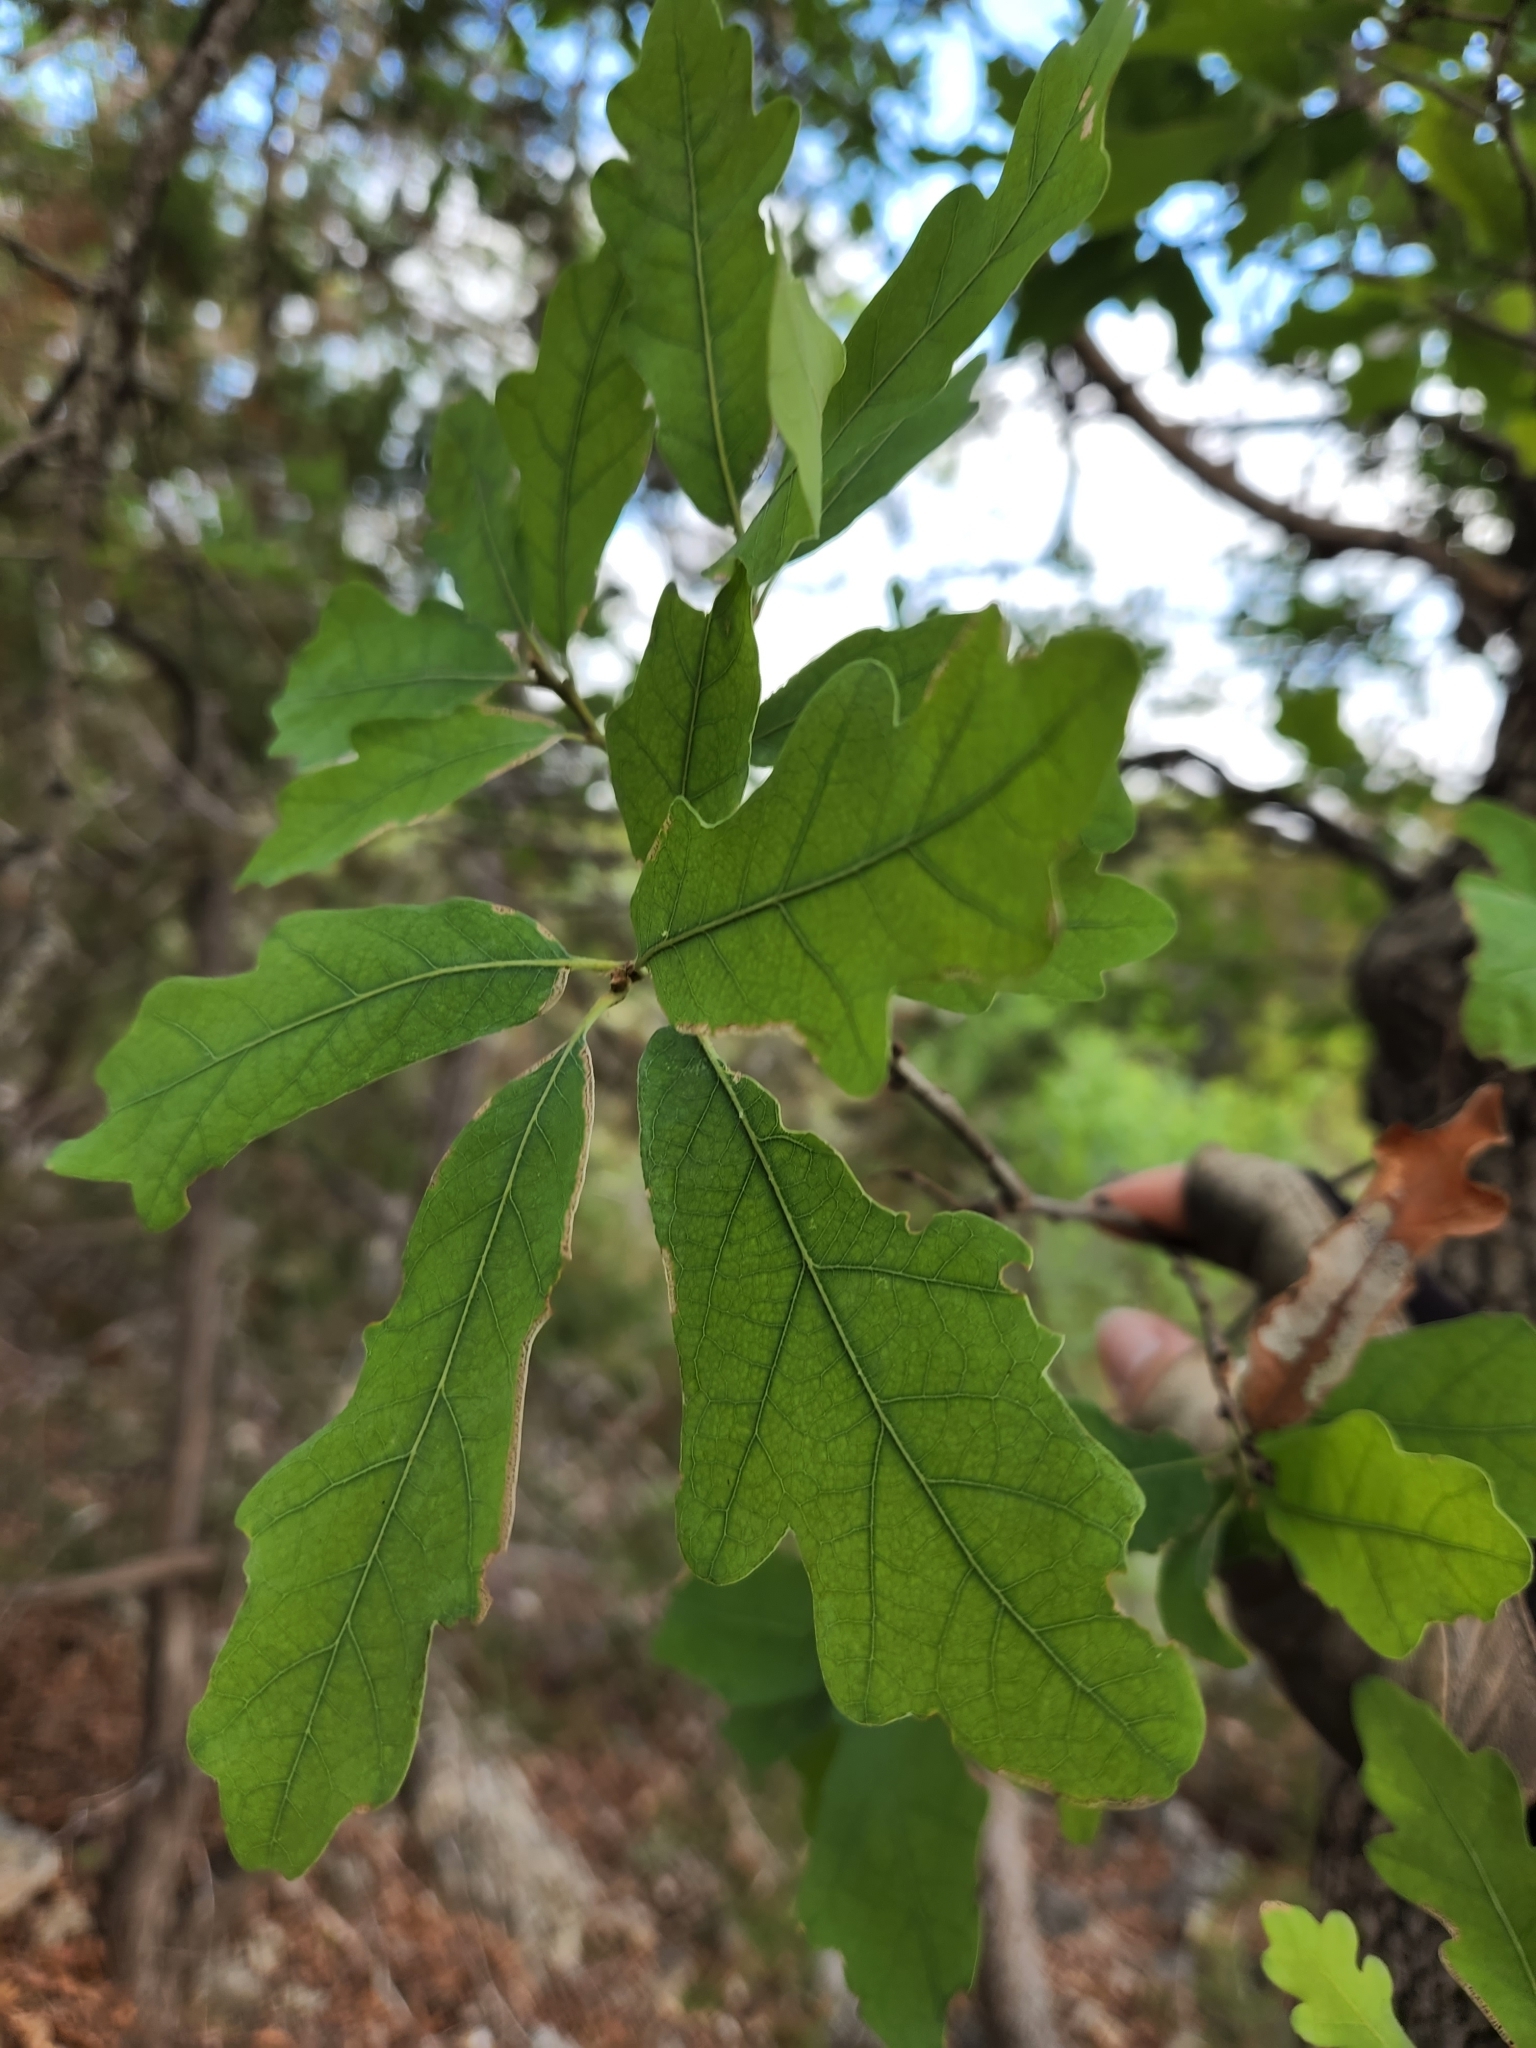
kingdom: Plantae
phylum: Tracheophyta
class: Magnoliopsida
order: Fagales
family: Fagaceae
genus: Quercus
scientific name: Quercus laceyi
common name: Lacey oak
